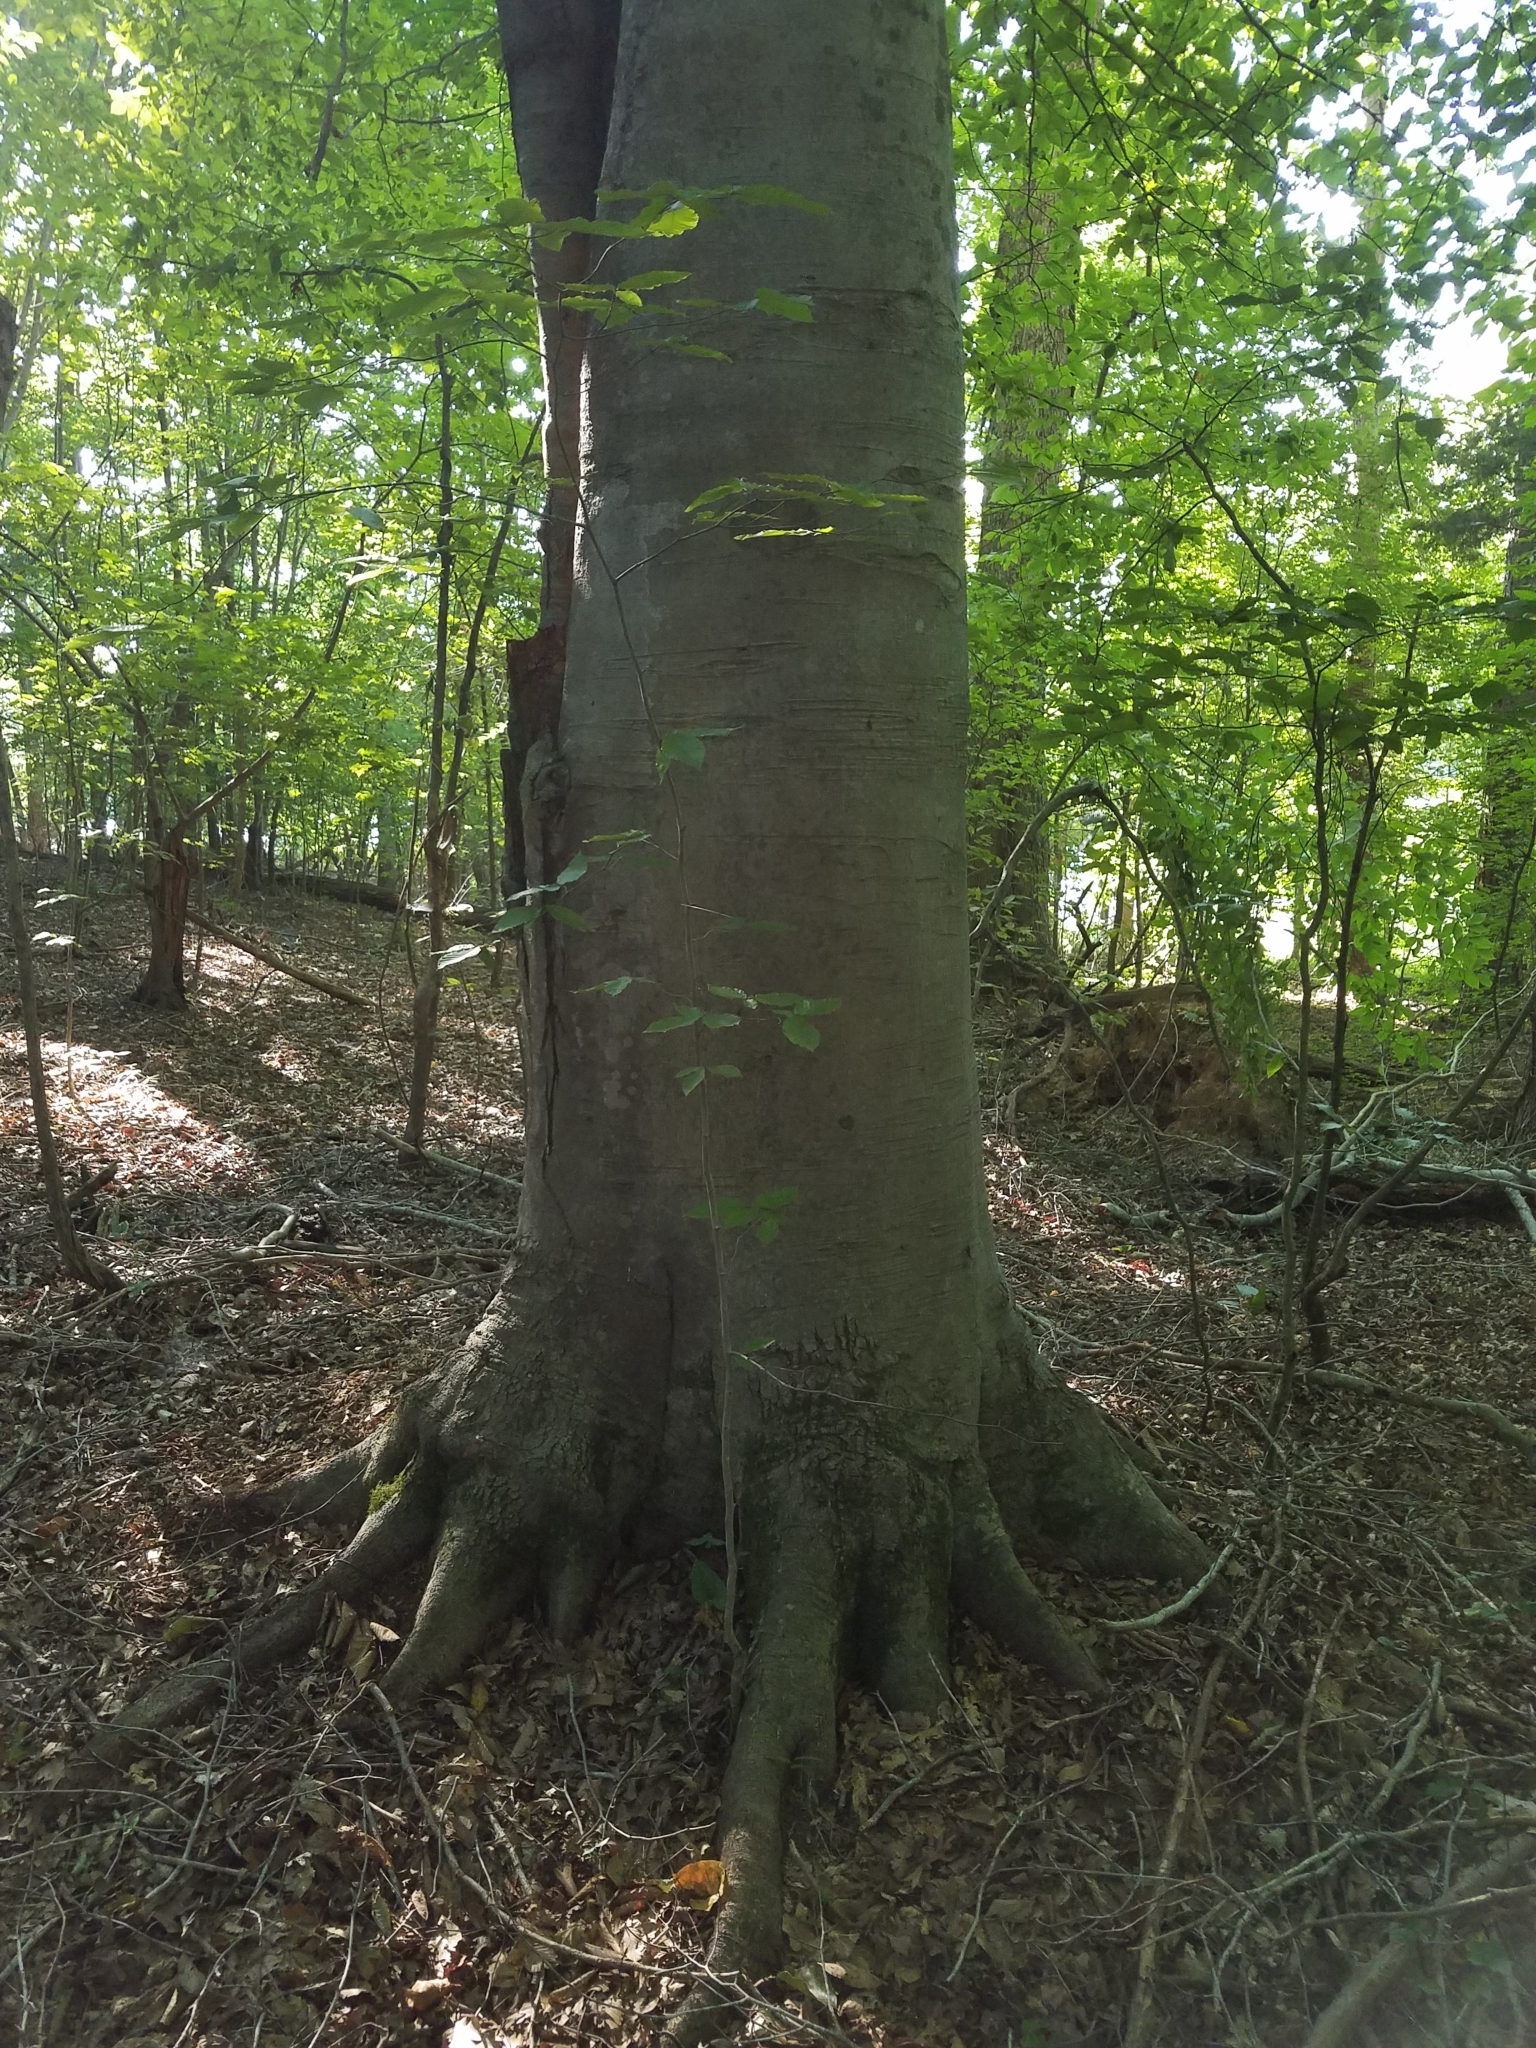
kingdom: Plantae
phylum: Tracheophyta
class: Magnoliopsida
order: Fagales
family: Fagaceae
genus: Fagus
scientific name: Fagus grandifolia
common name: American beech
